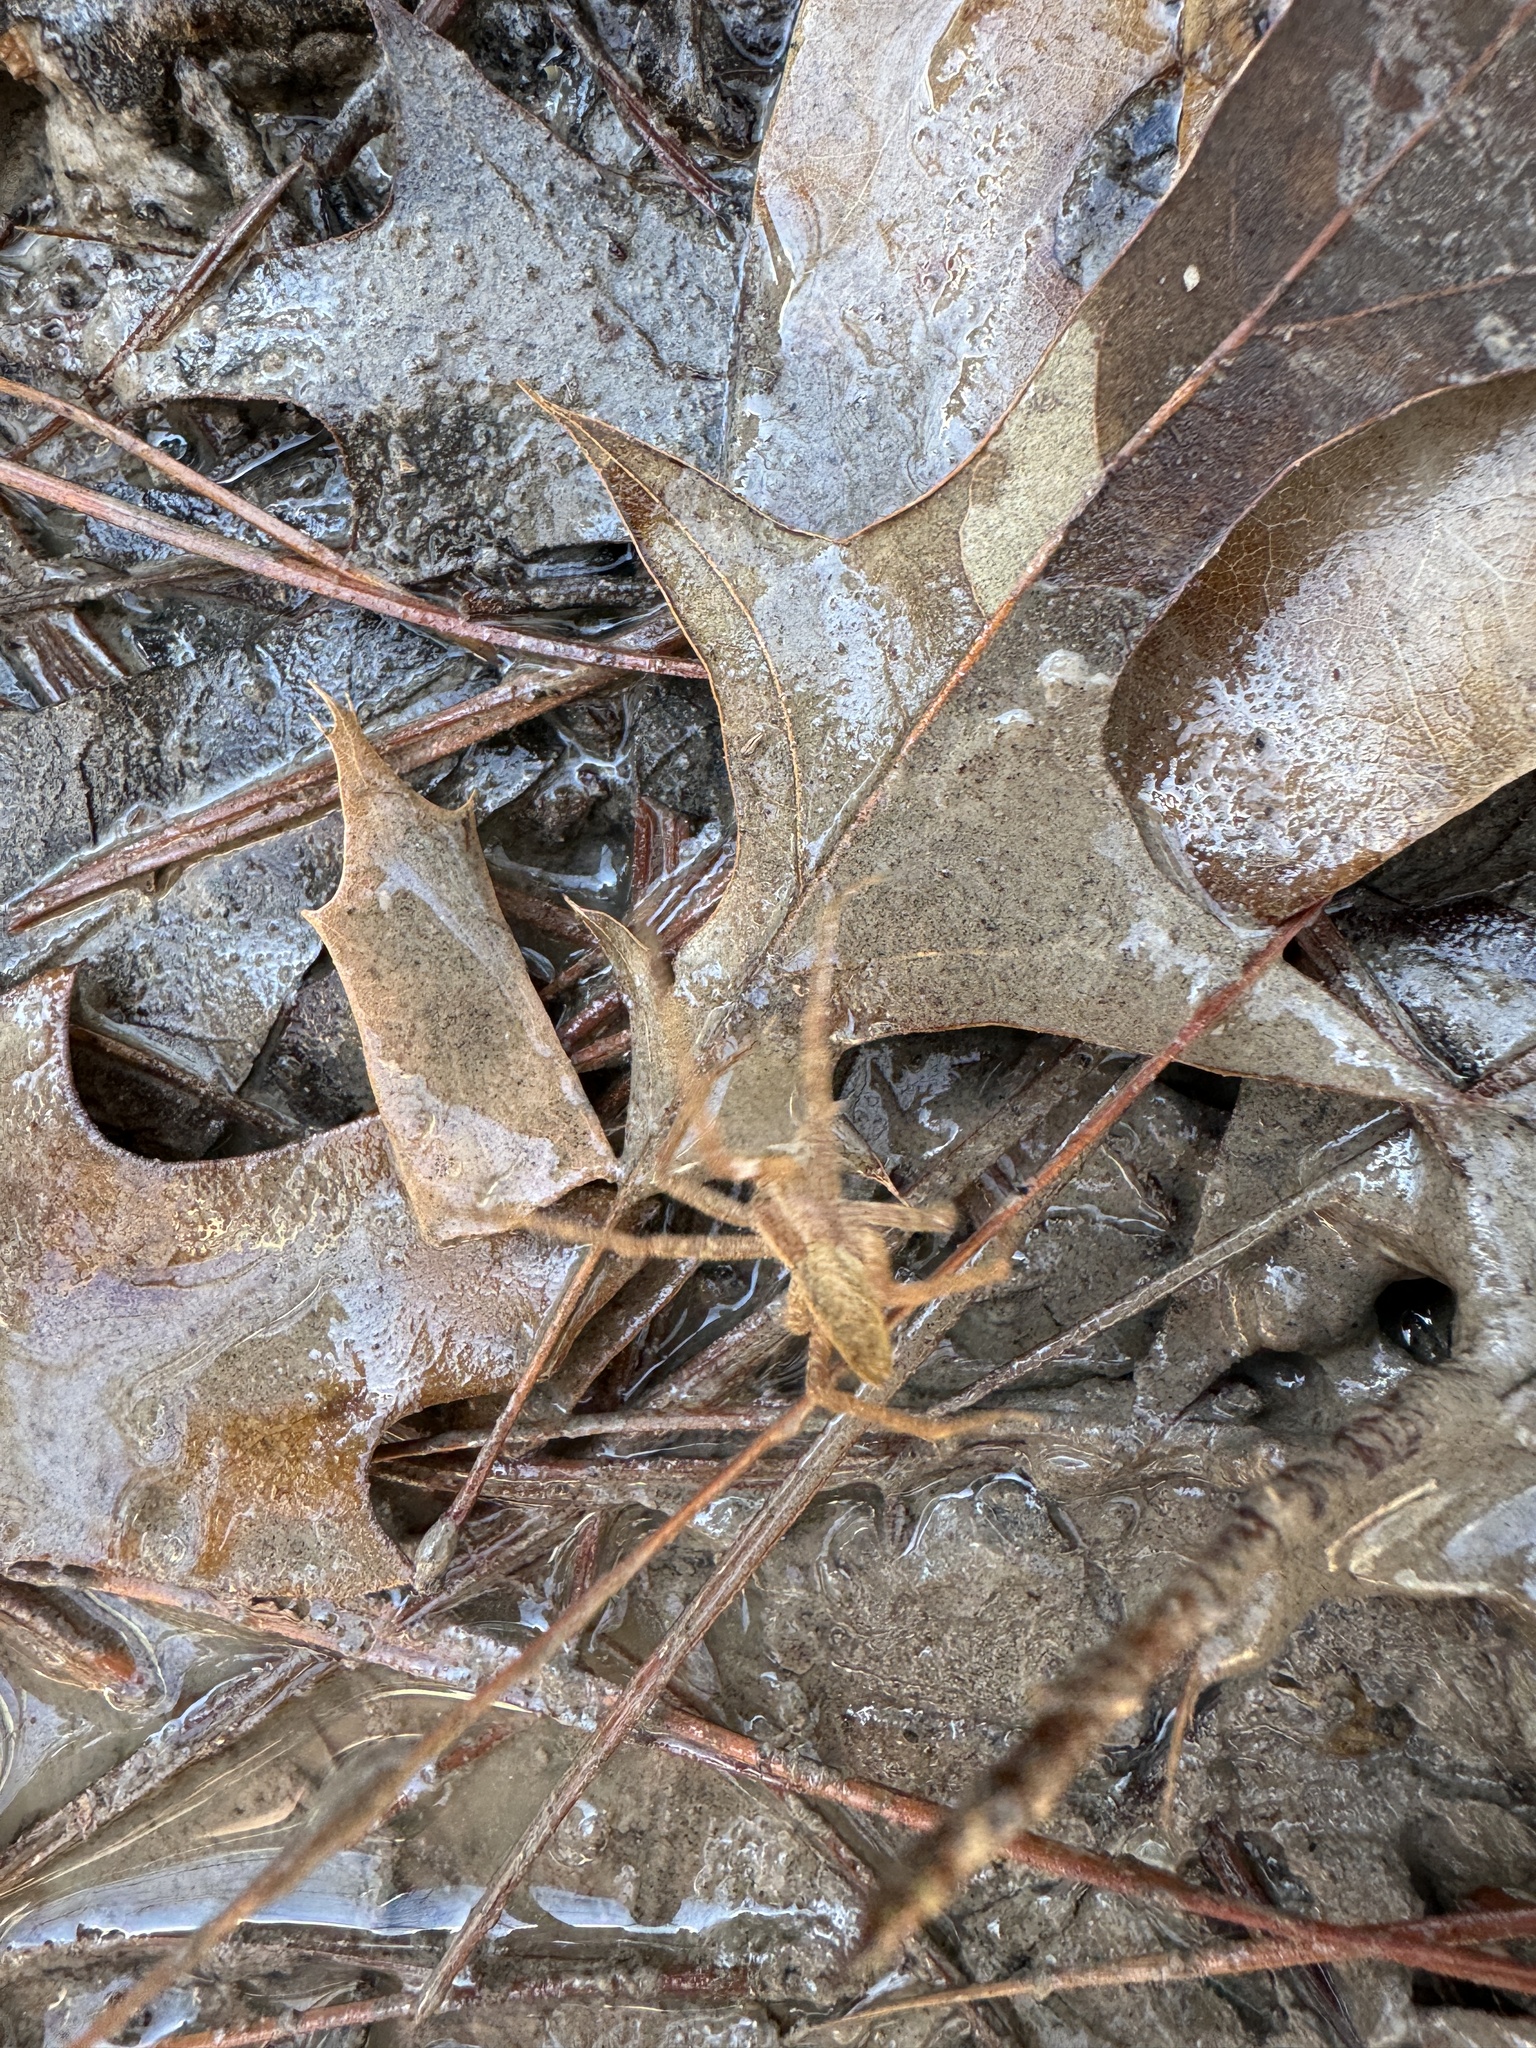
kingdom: Animalia
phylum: Arthropoda
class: Arachnida
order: Araneae
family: Pisauridae
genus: Pisaurina
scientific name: Pisaurina mira
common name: American nursery web spider
